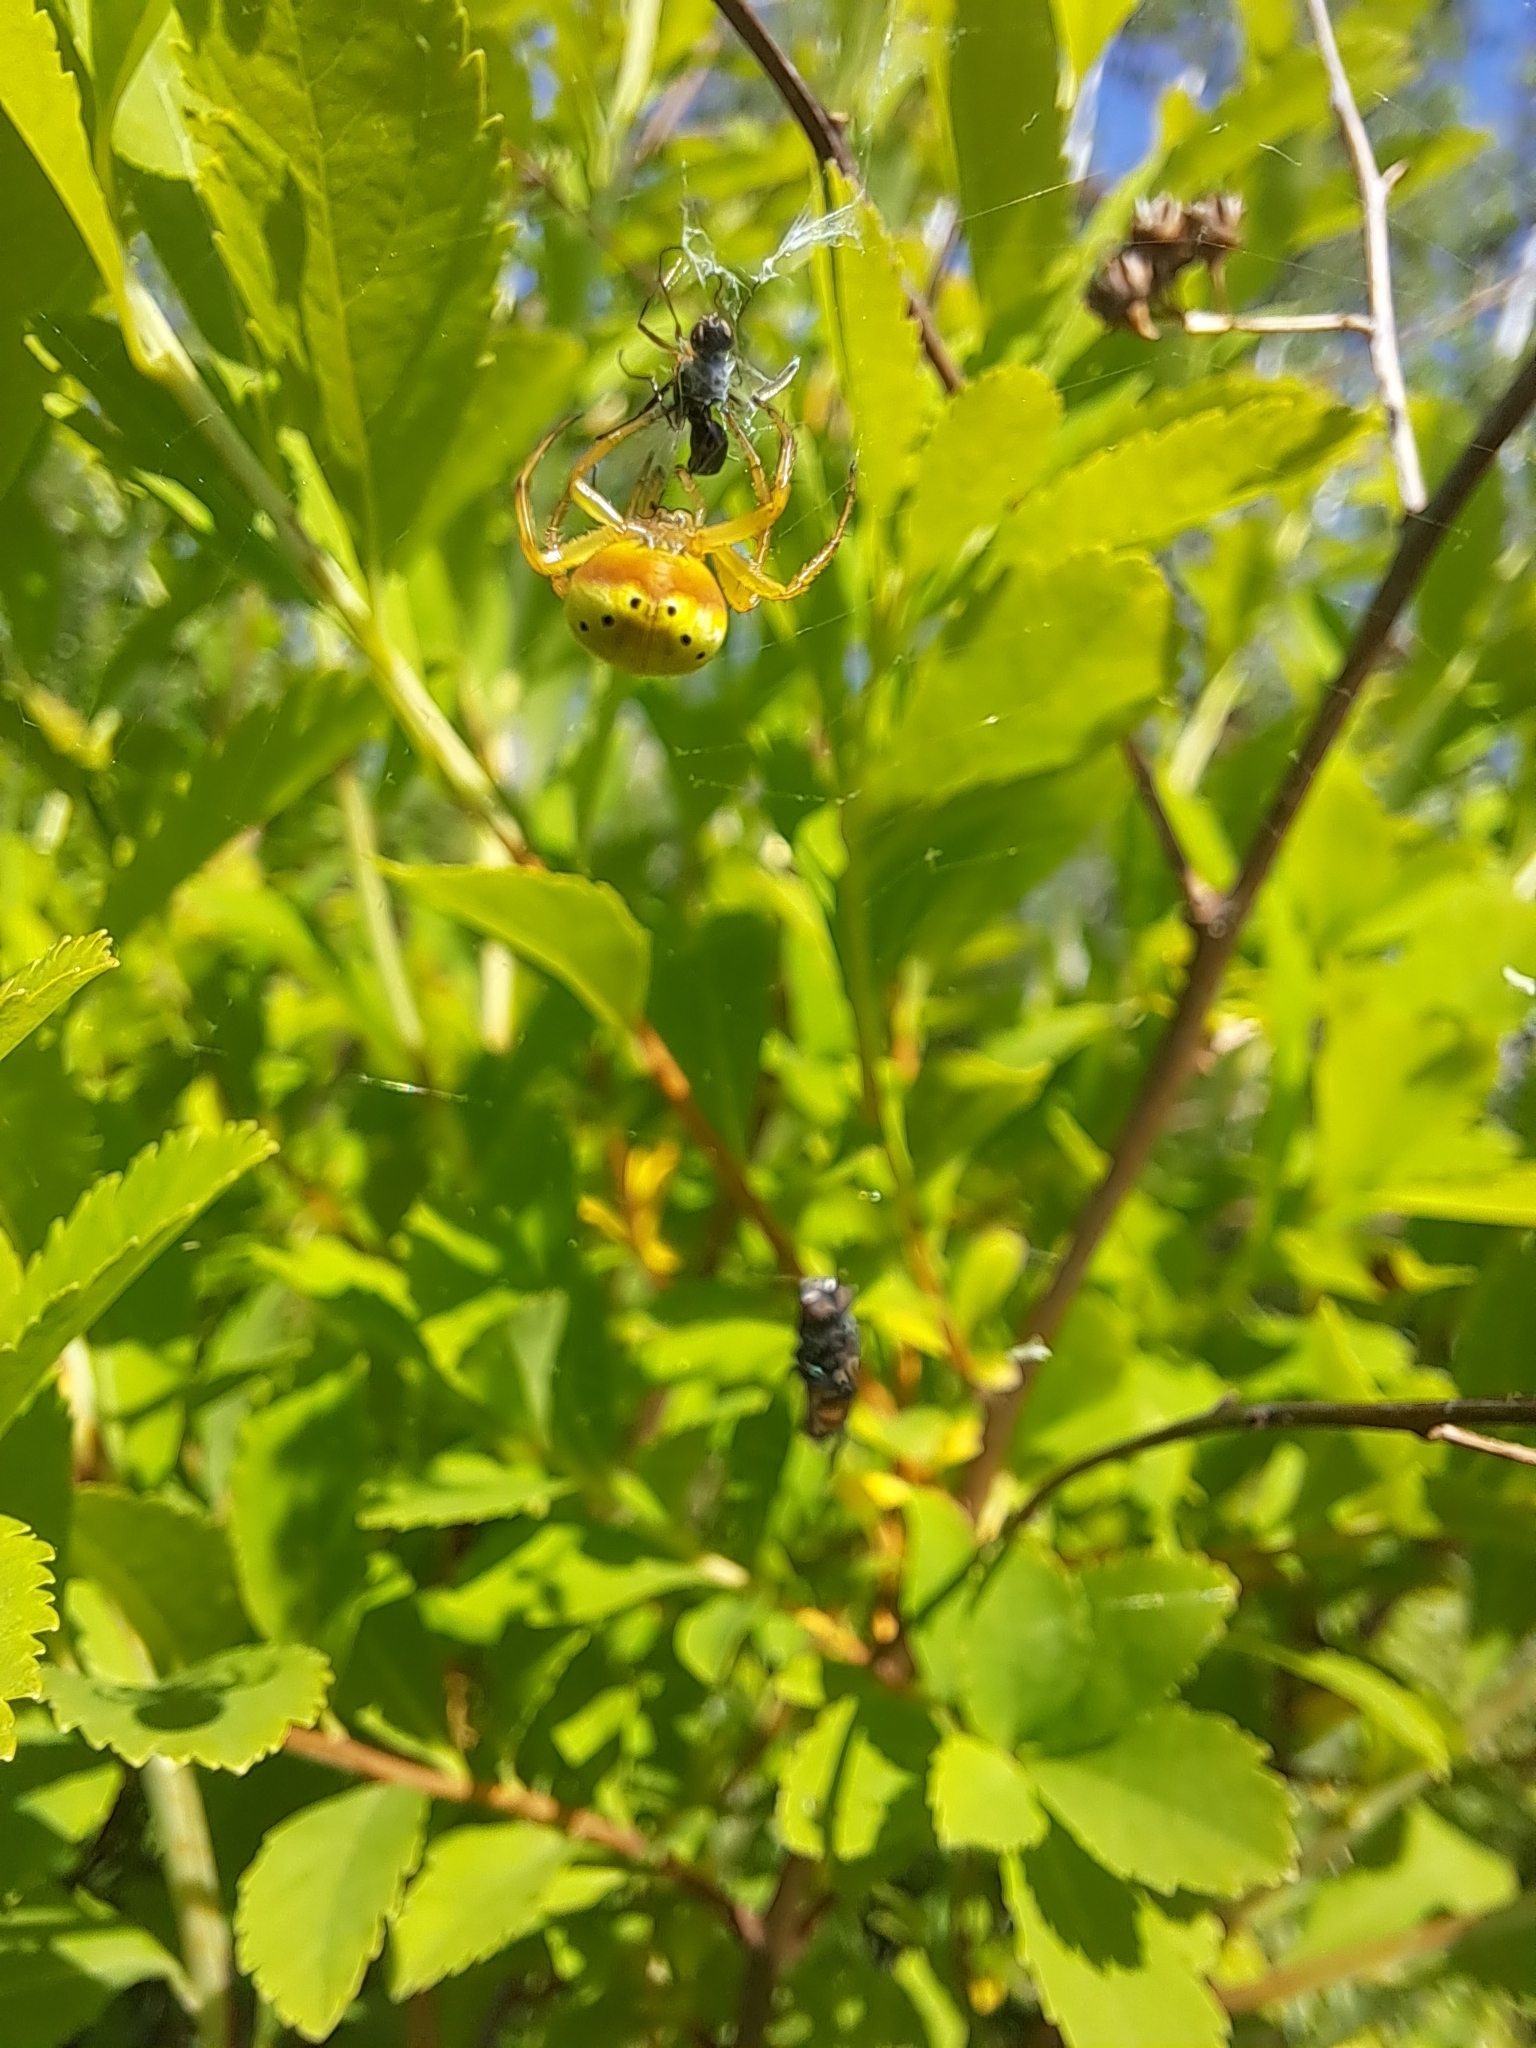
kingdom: Animalia
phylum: Arthropoda
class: Arachnida
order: Araneae
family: Araneidae
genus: Araniella
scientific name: Araniella displicata
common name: Sixspotted orb weaver
